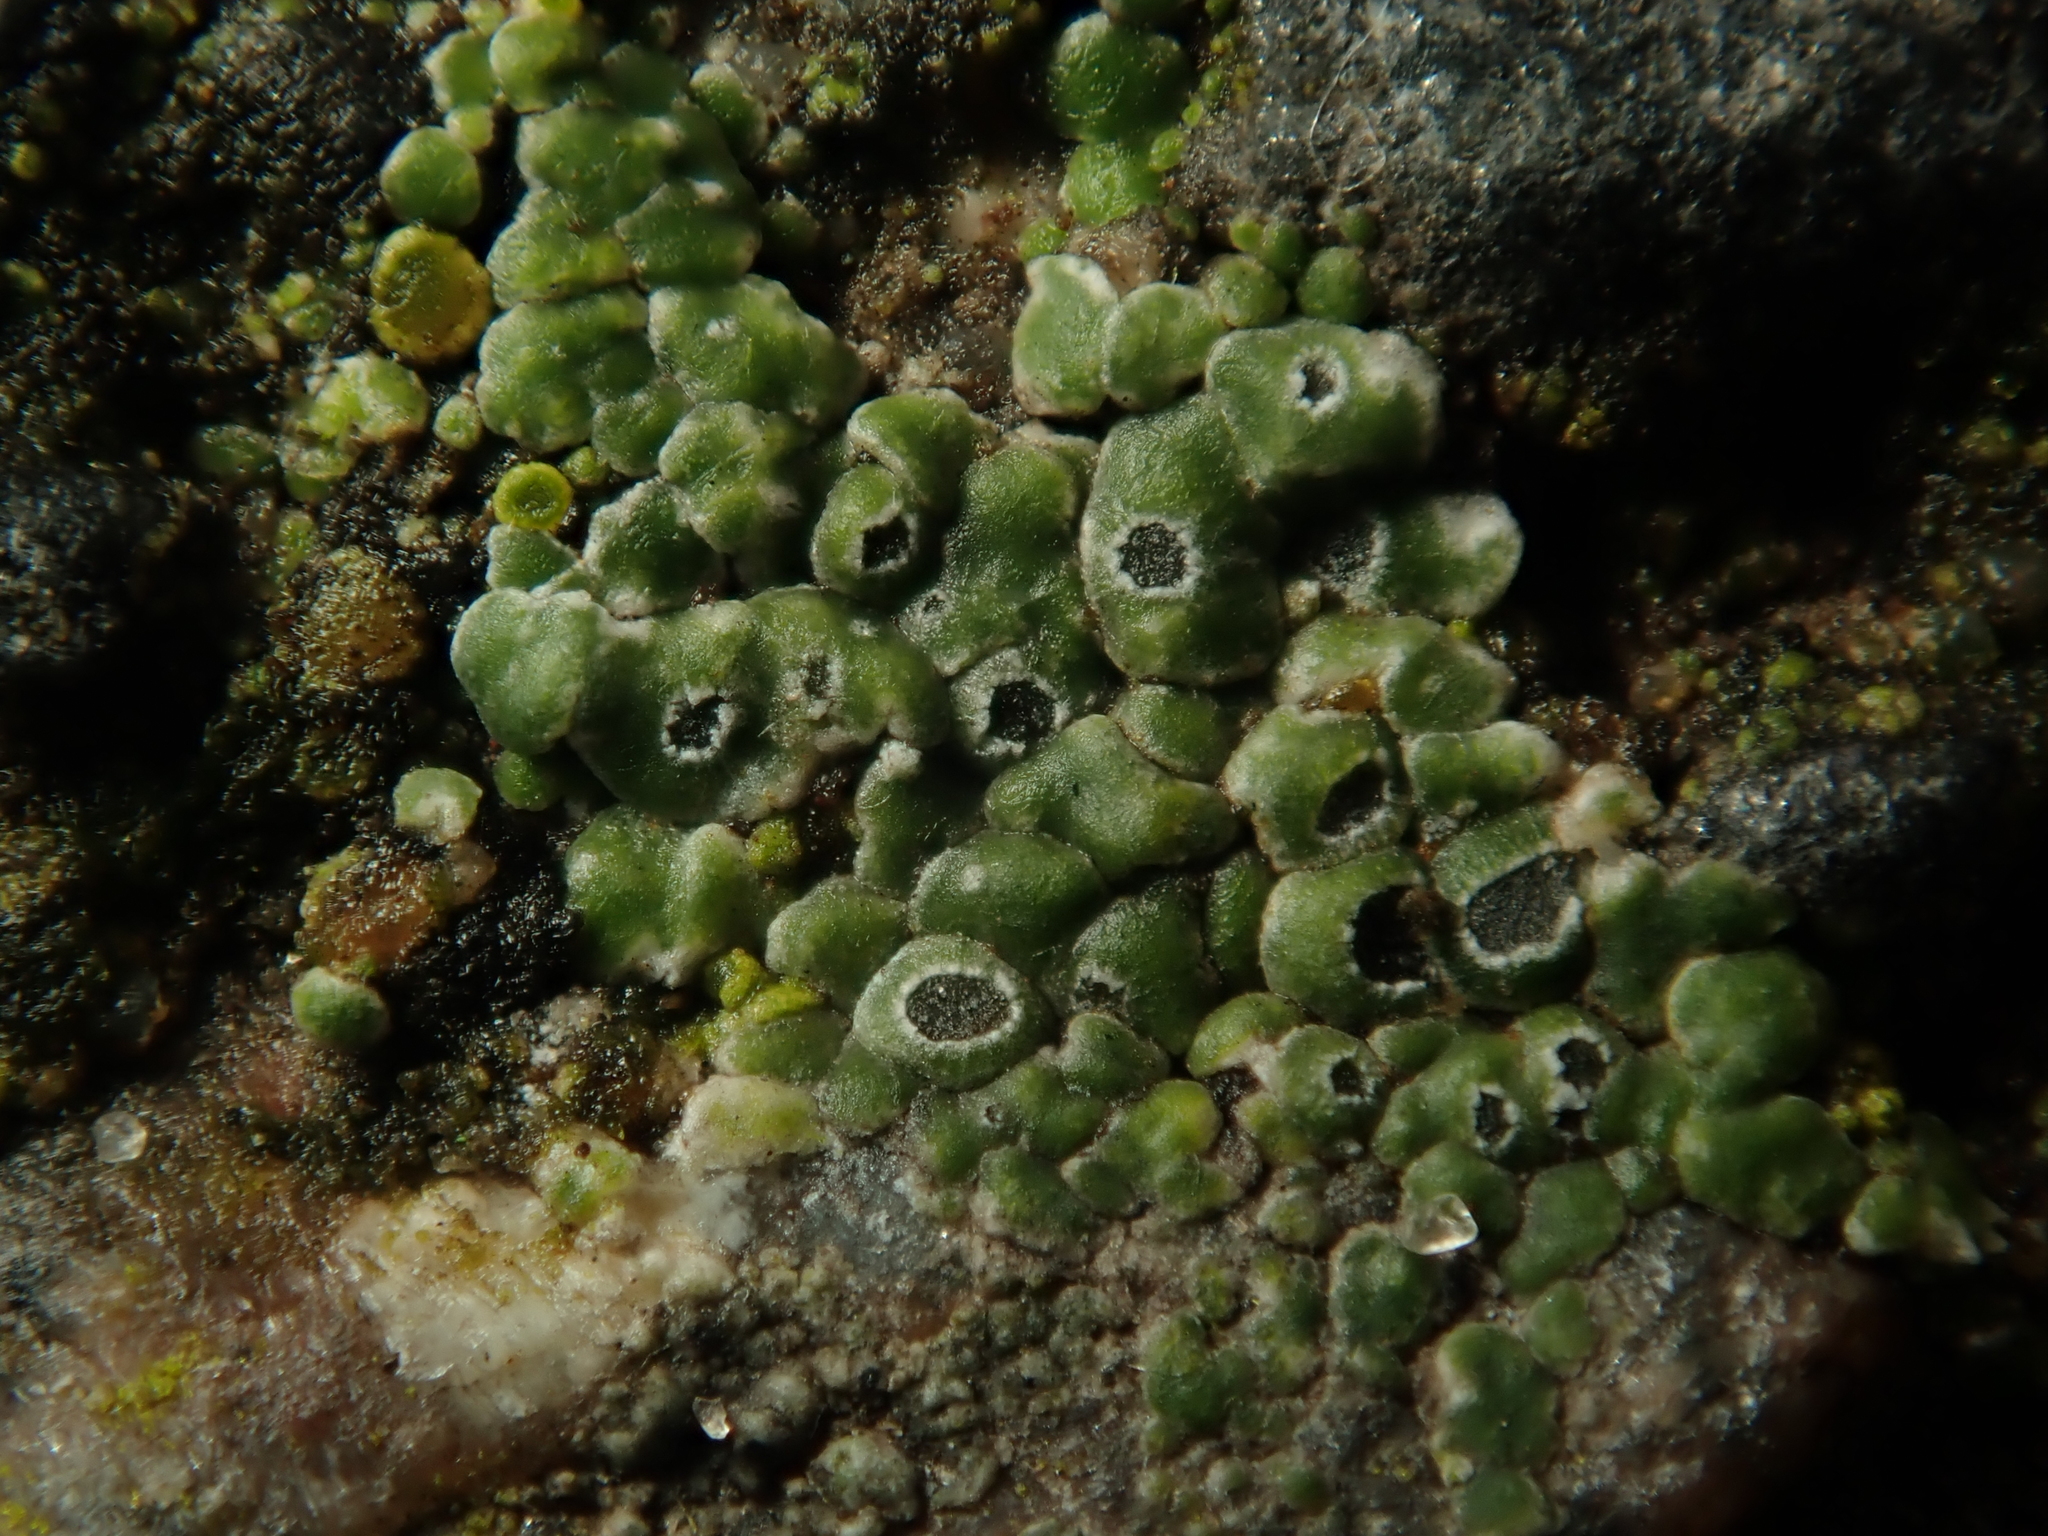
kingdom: Fungi
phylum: Ascomycota
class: Lecanoromycetes
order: Pertusariales
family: Megasporaceae
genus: Circinaria
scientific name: Circinaria contorta
